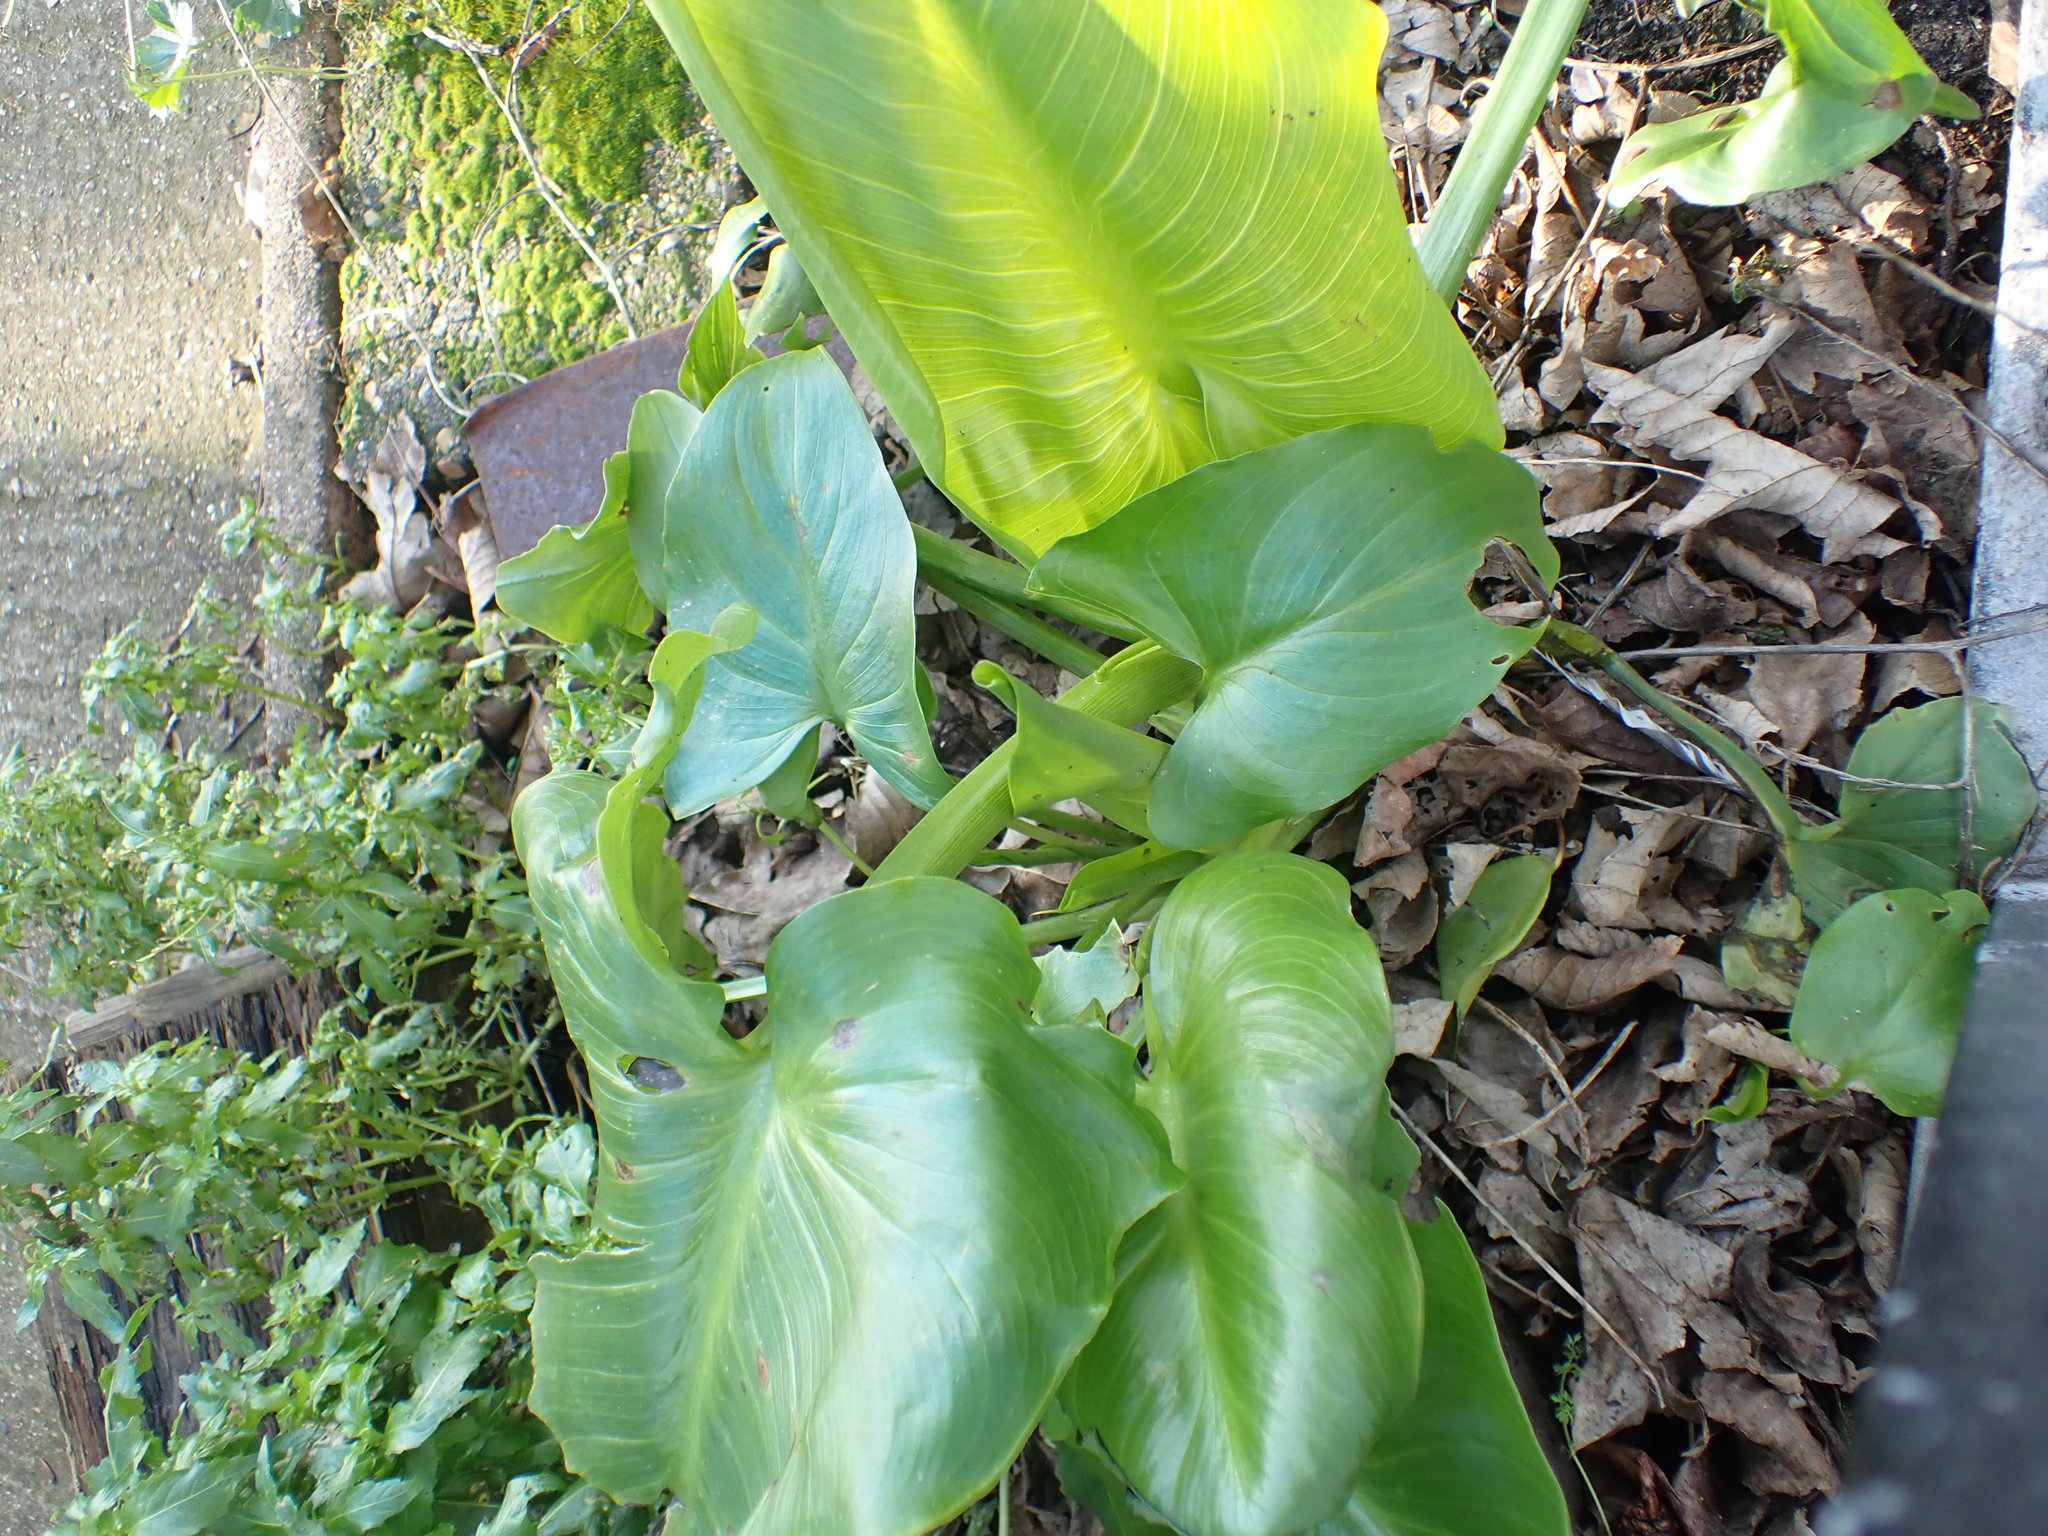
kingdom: Plantae
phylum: Tracheophyta
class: Liliopsida
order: Alismatales
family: Araceae
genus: Zantedeschia
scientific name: Zantedeschia aethiopica
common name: Altar-lily
